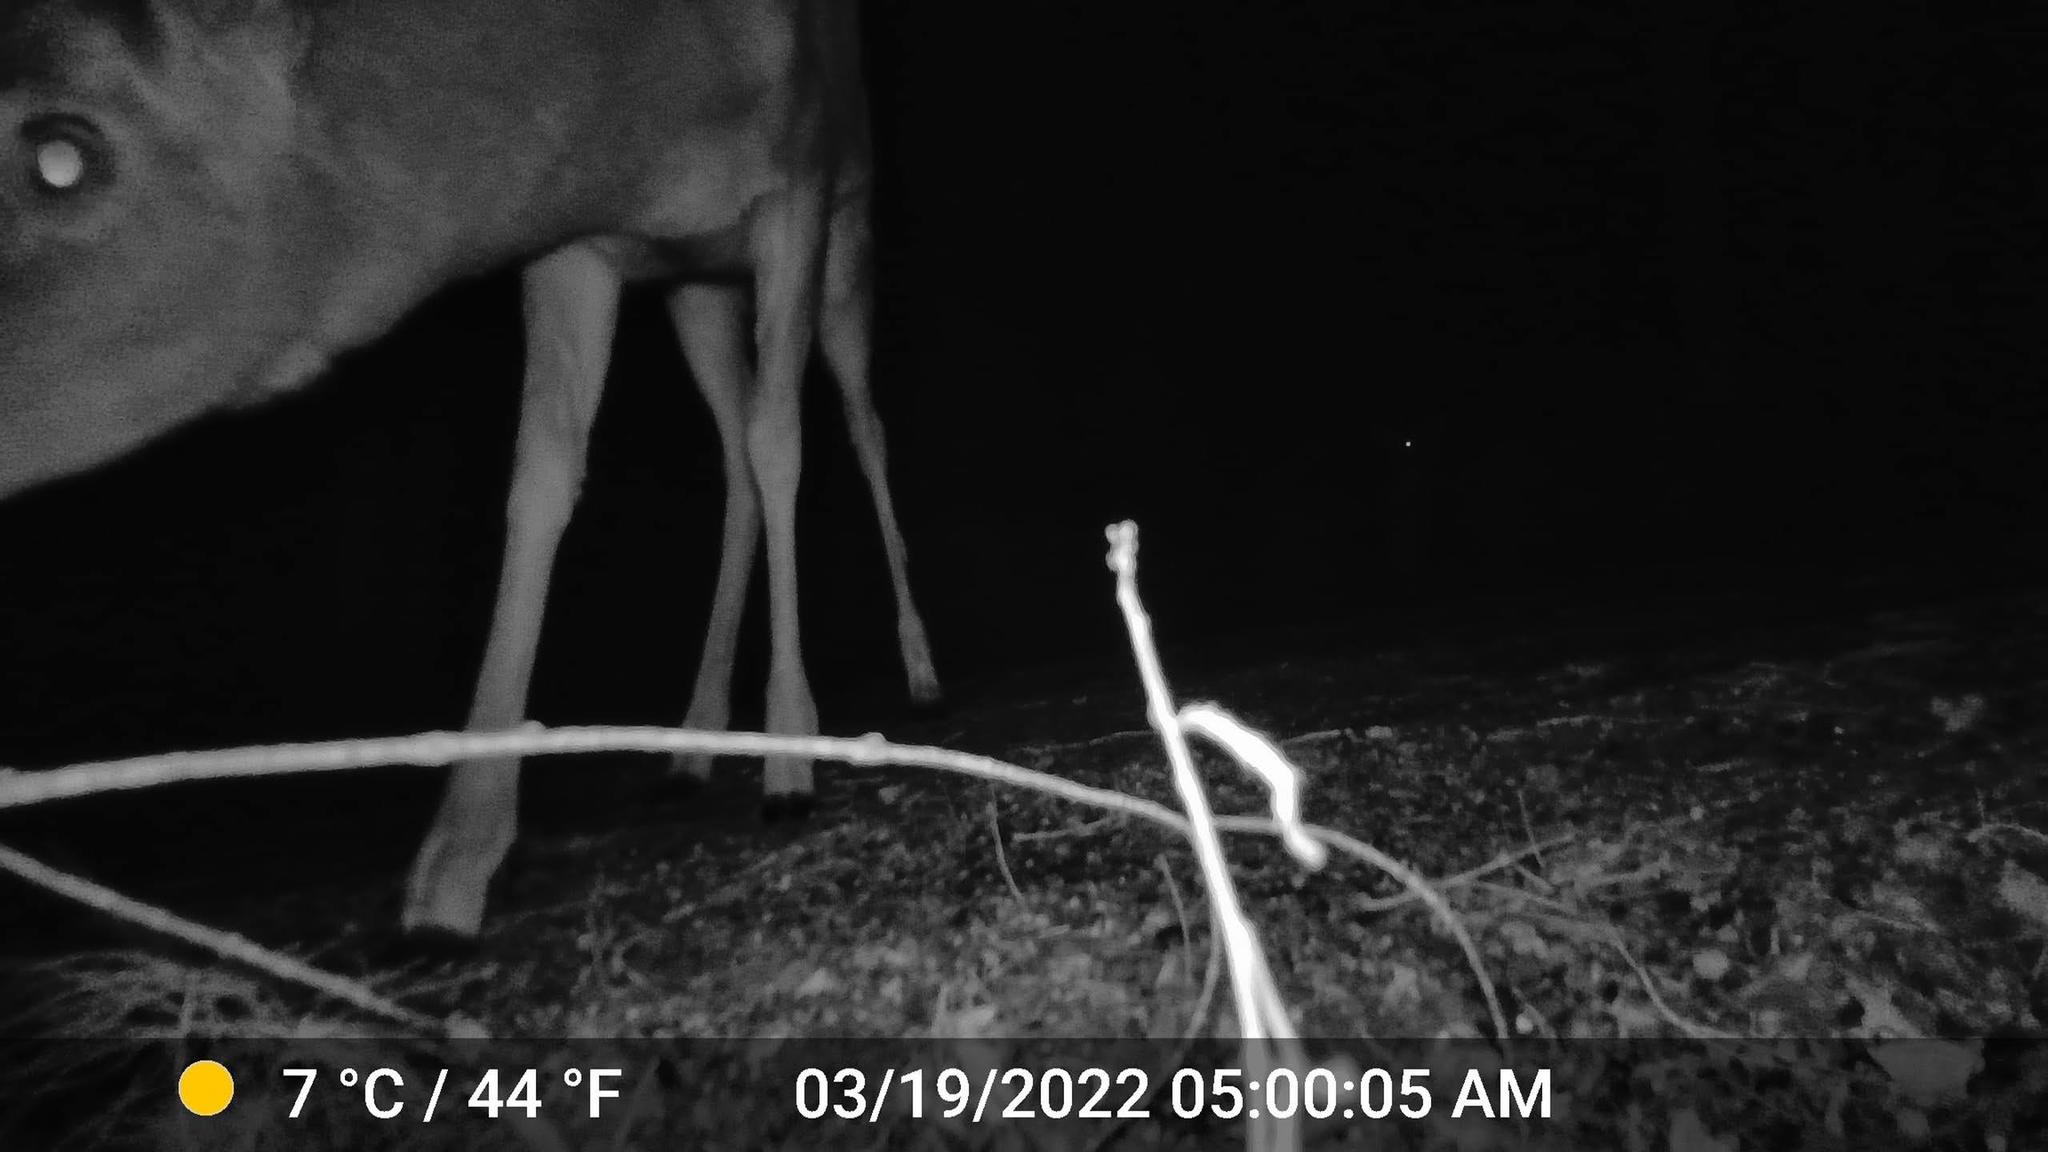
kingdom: Animalia
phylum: Chordata
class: Mammalia
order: Artiodactyla
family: Cervidae
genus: Odocoileus
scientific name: Odocoileus virginianus
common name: White-tailed deer
